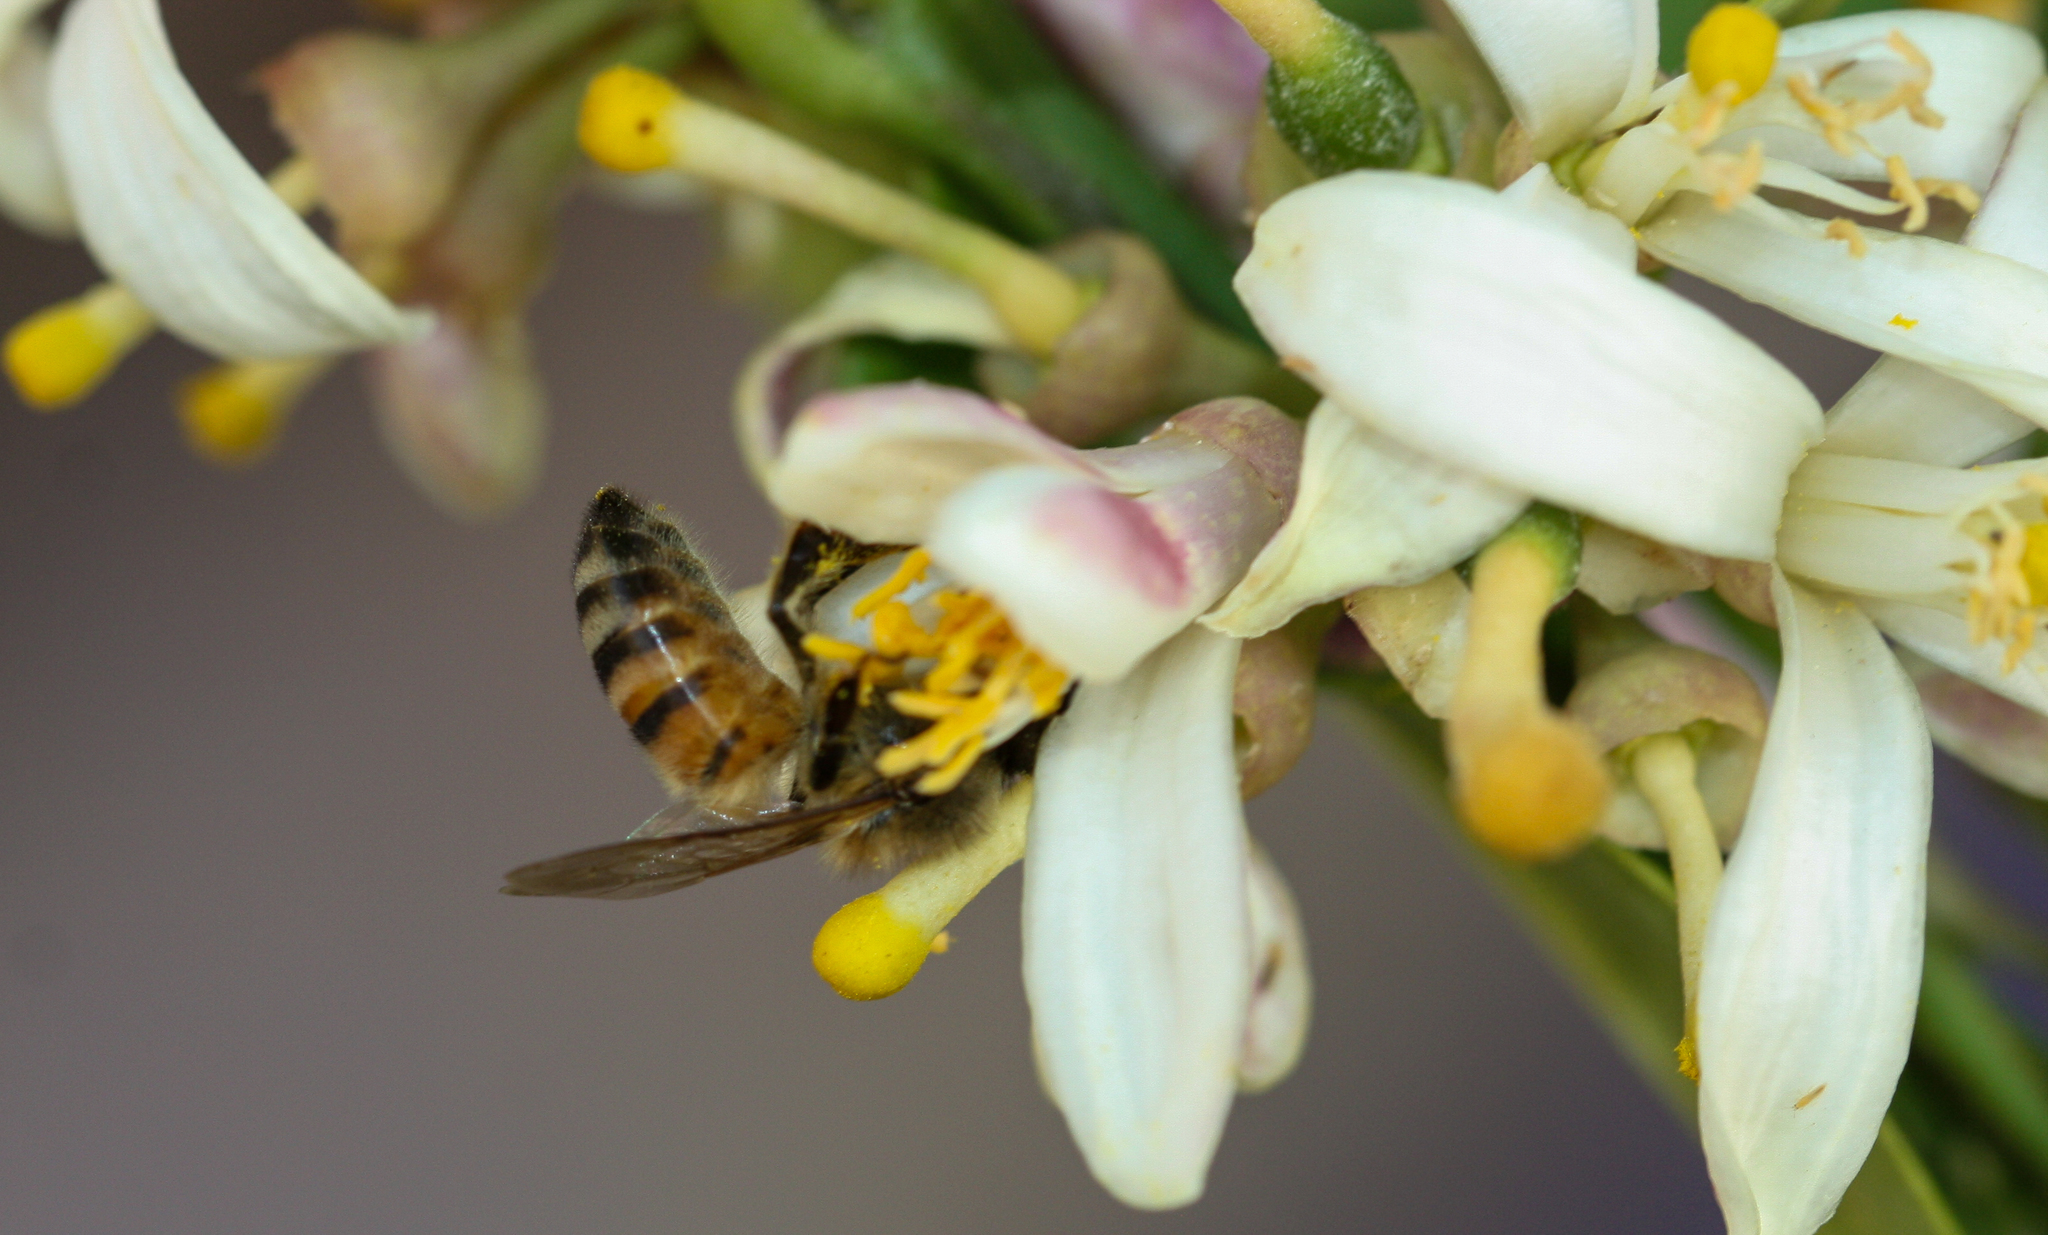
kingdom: Animalia
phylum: Arthropoda
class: Insecta
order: Hymenoptera
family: Apidae
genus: Apis
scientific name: Apis mellifera
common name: Honey bee
